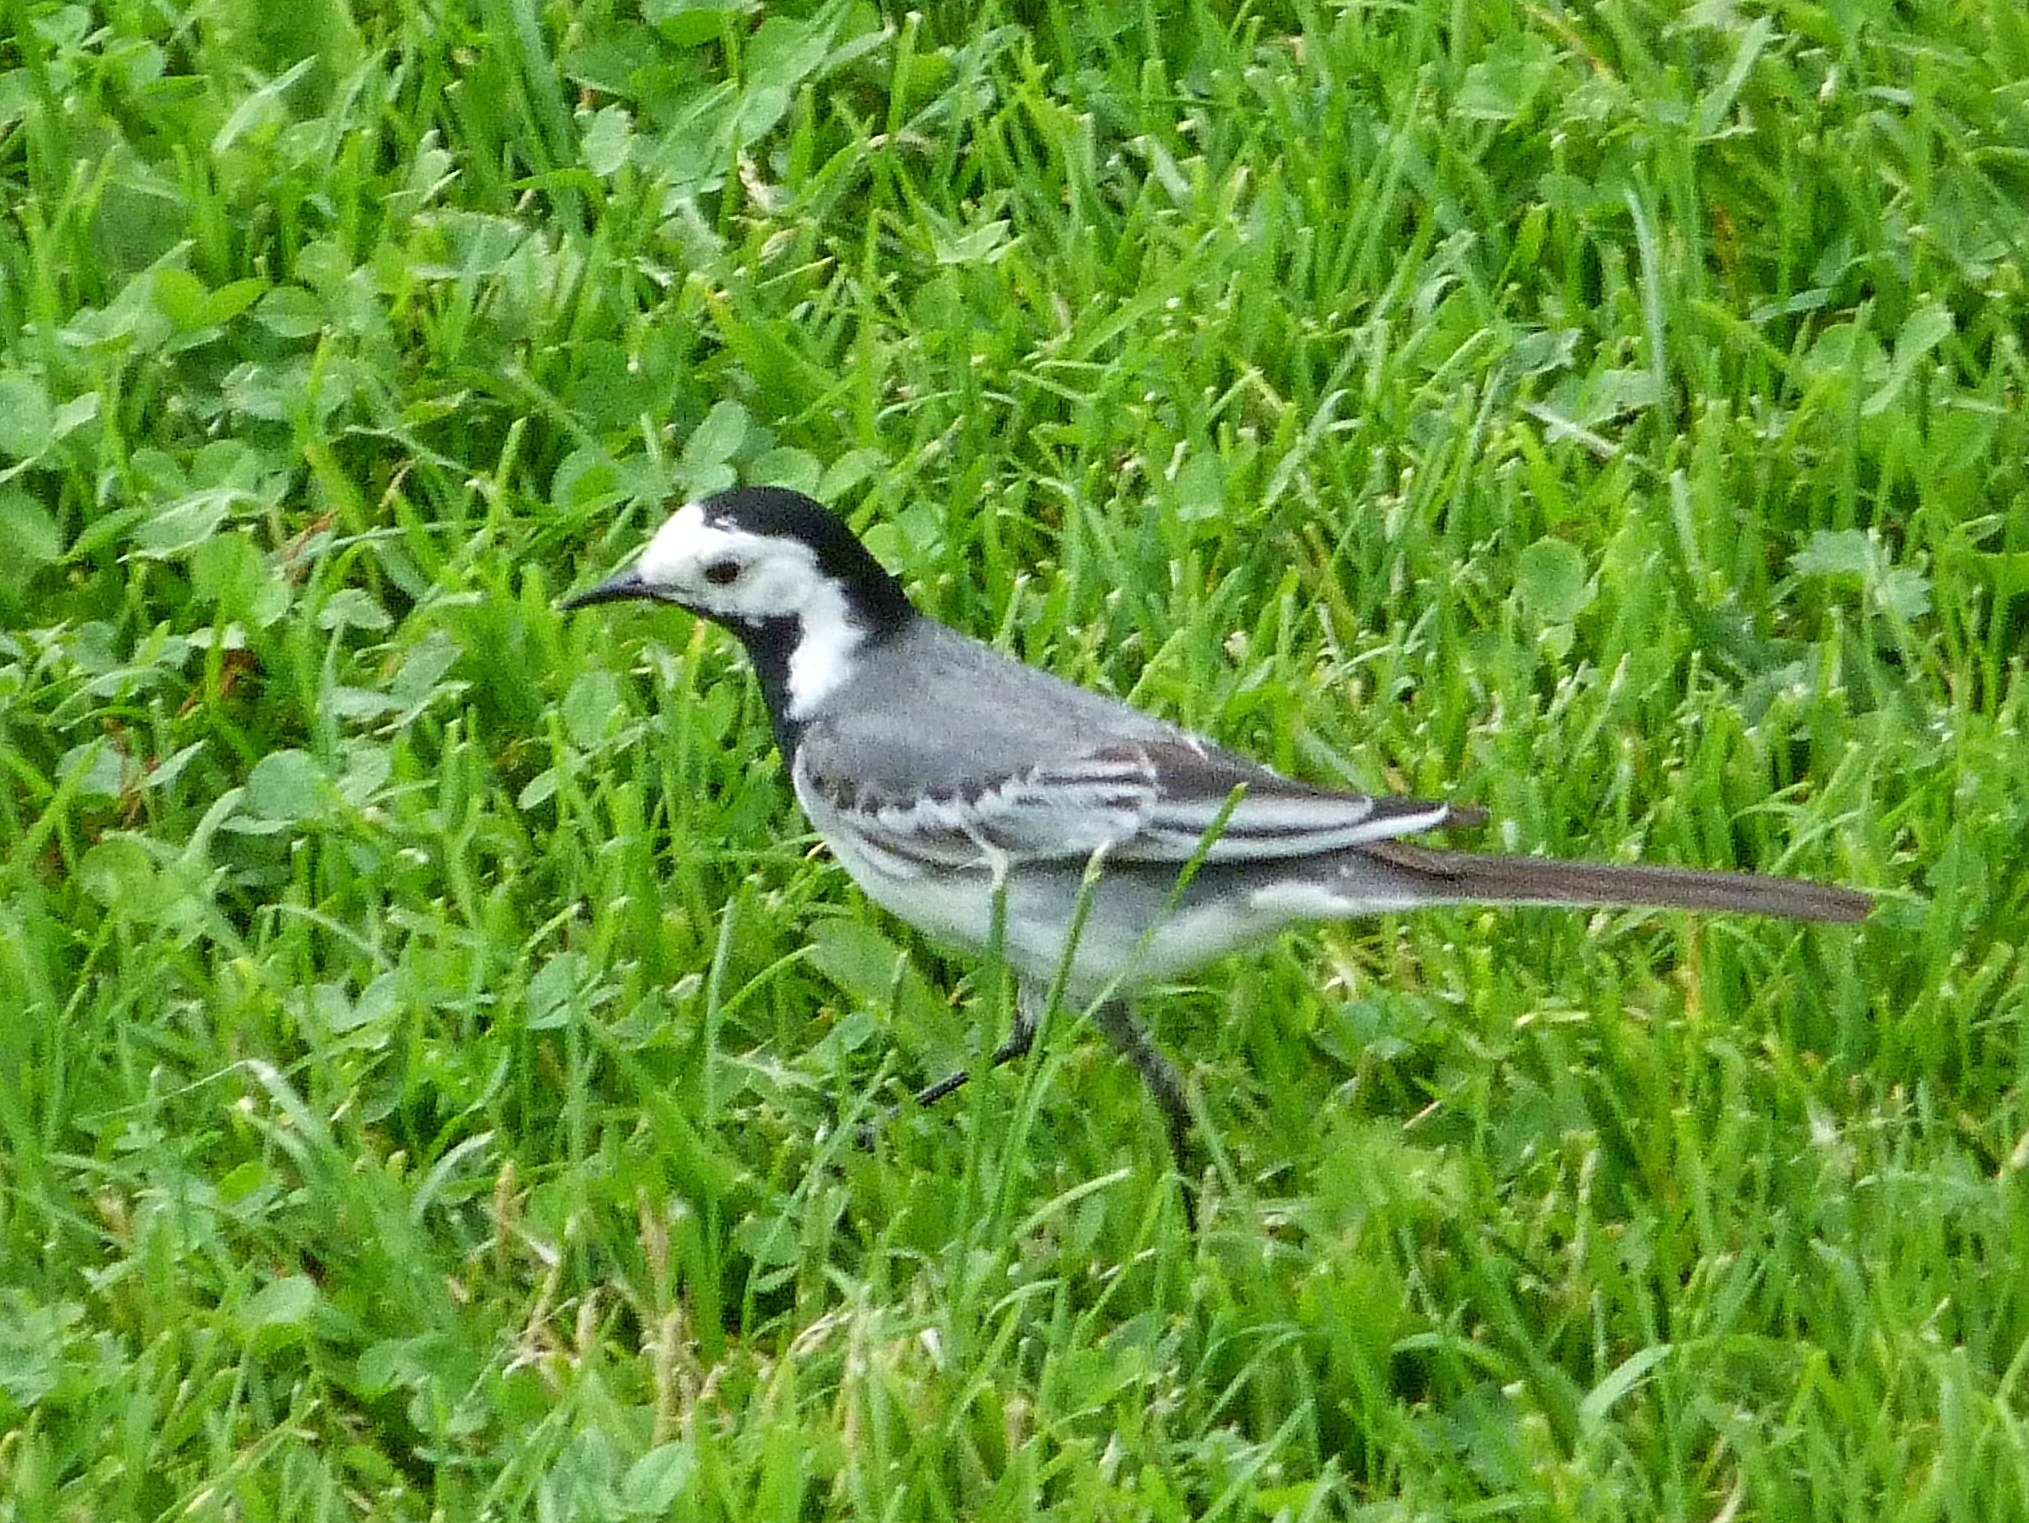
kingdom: Animalia
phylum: Chordata
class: Aves
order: Passeriformes
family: Motacillidae
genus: Motacilla
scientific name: Motacilla alba
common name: White wagtail
